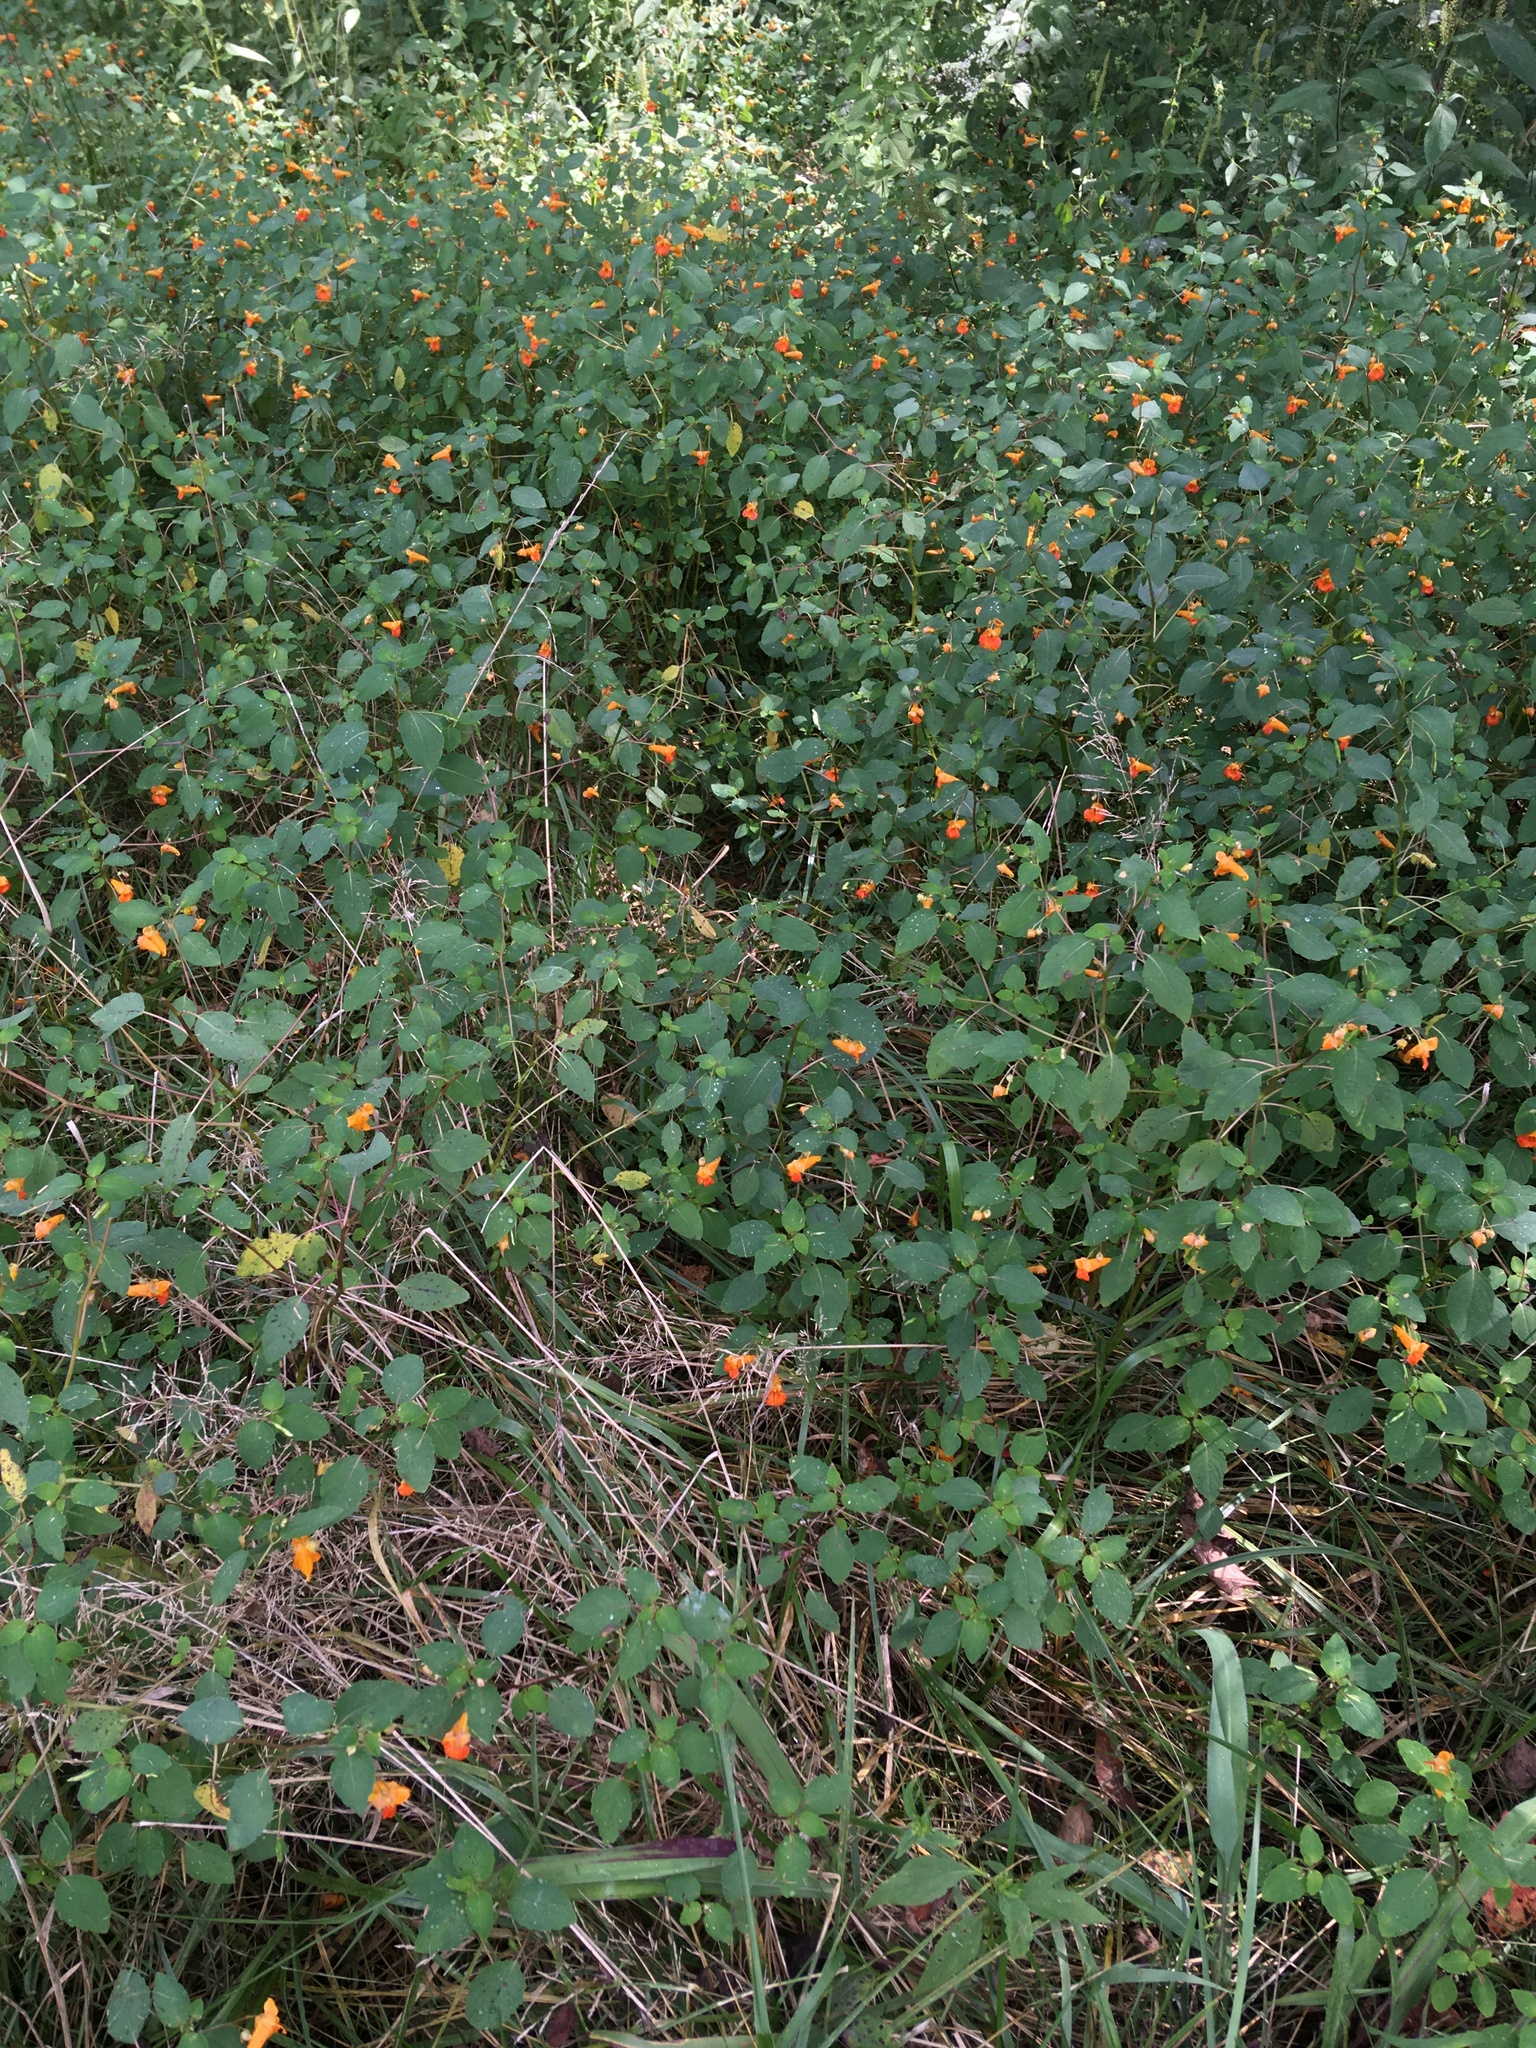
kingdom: Plantae
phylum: Tracheophyta
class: Magnoliopsida
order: Ericales
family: Balsaminaceae
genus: Impatiens
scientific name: Impatiens capensis
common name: Orange balsam
